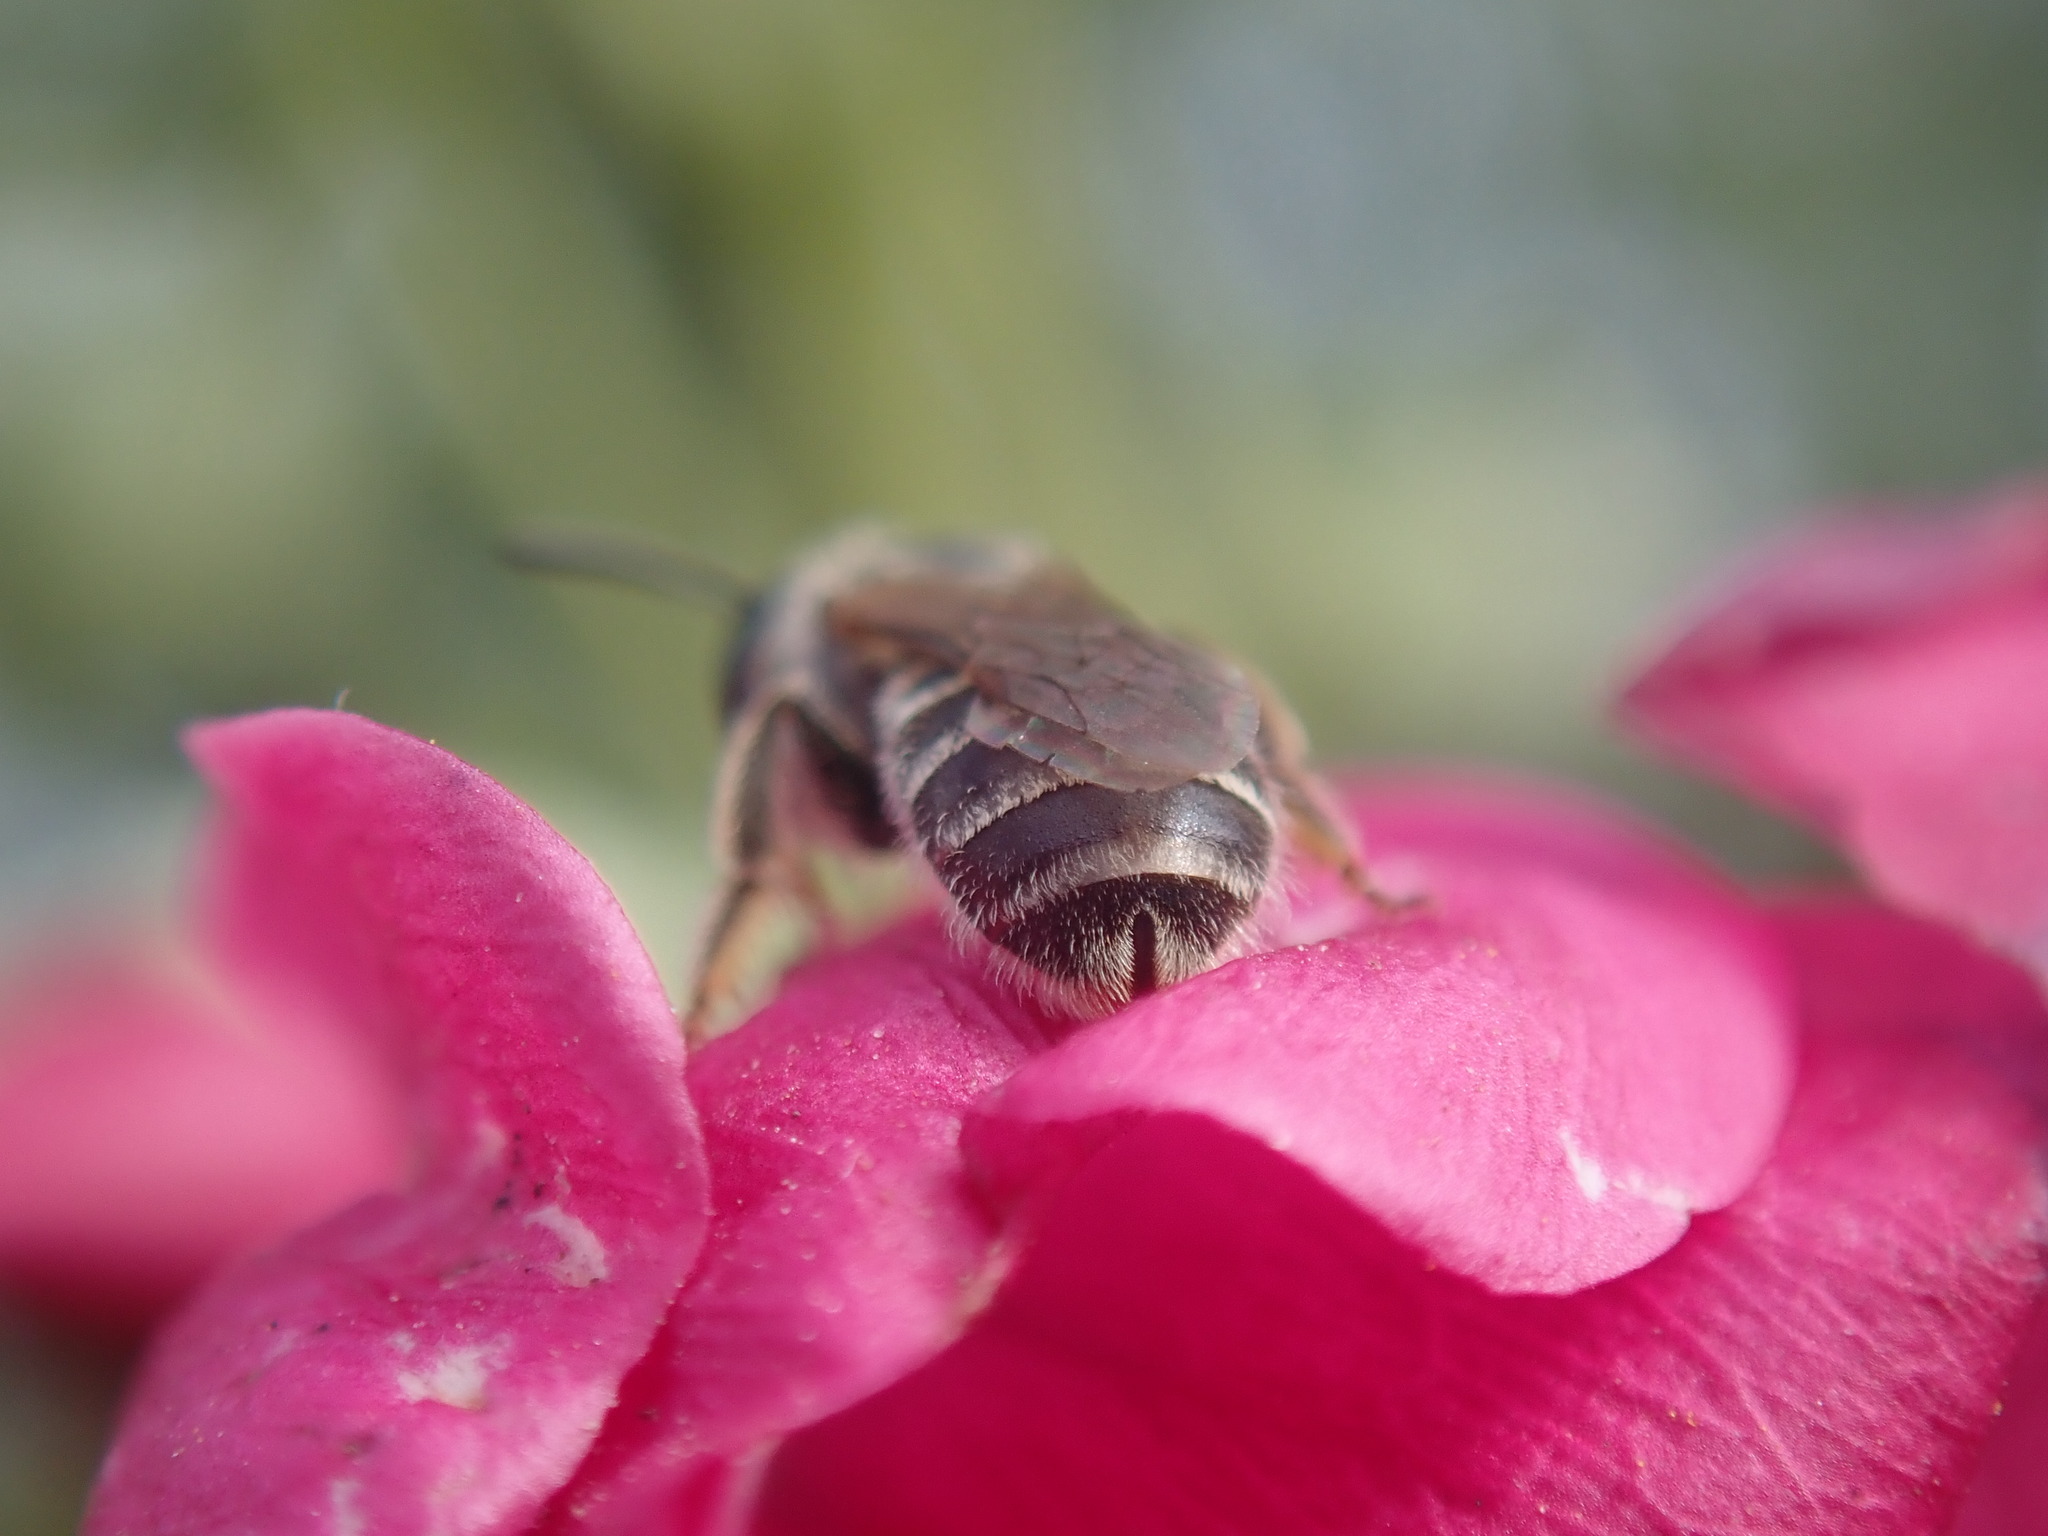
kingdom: Animalia
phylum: Arthropoda
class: Insecta
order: Hymenoptera
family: Halictidae
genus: Halictus
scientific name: Halictus tripartitus
